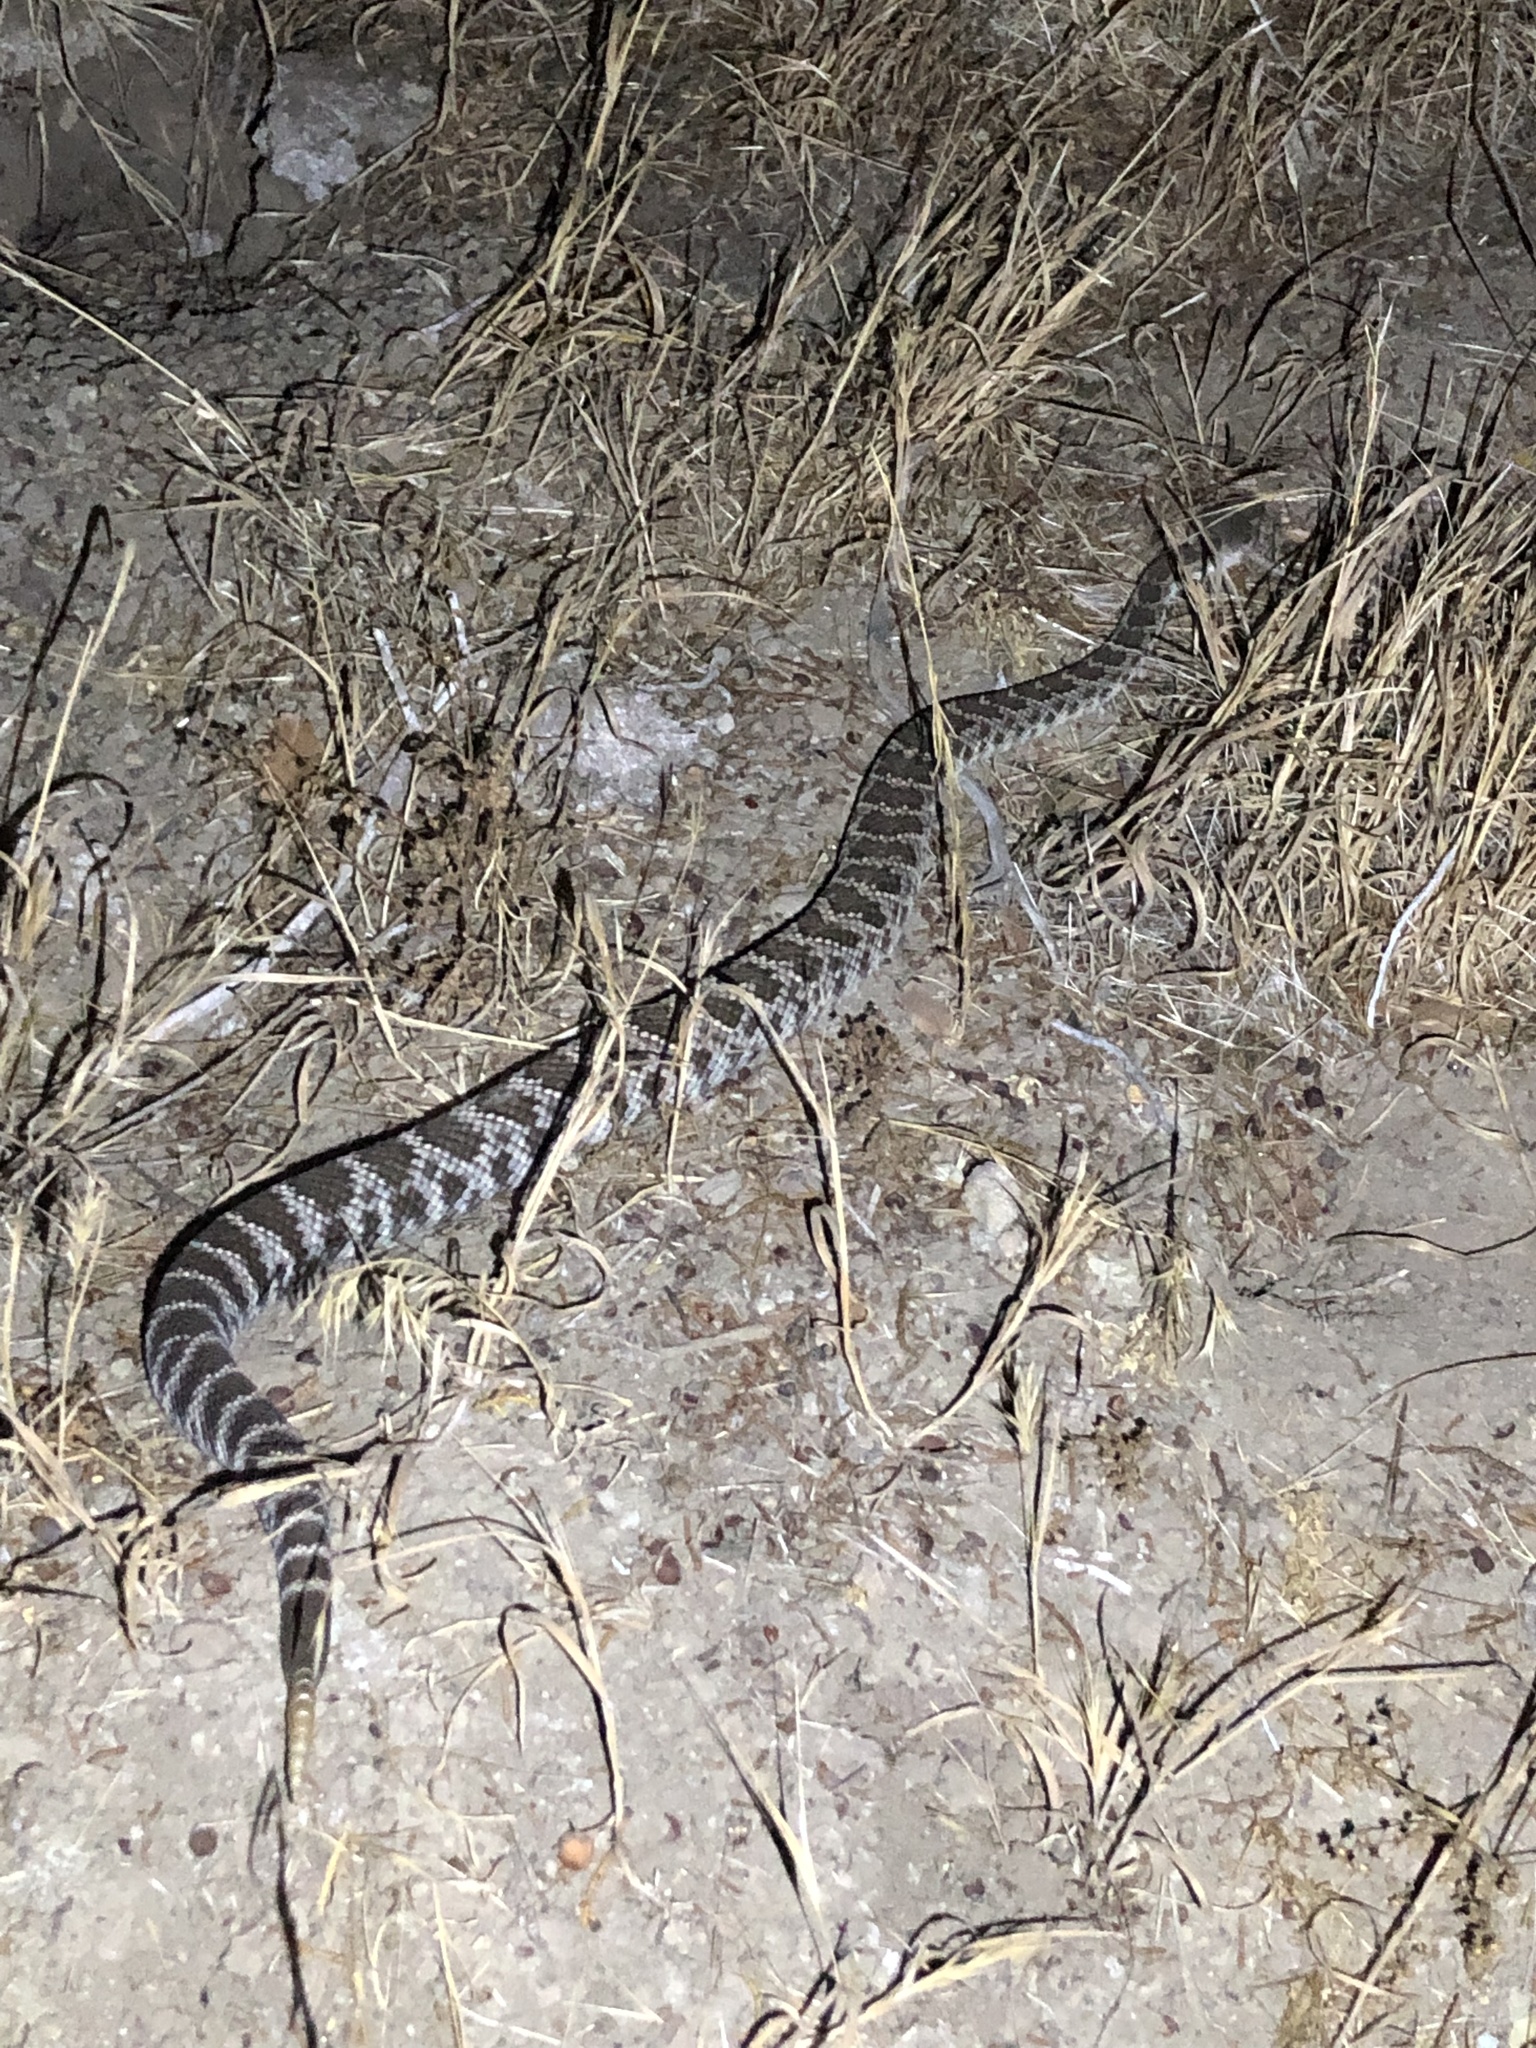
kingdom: Animalia
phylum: Chordata
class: Squamata
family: Viperidae
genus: Crotalus
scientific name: Crotalus oreganus
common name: Abyssus
